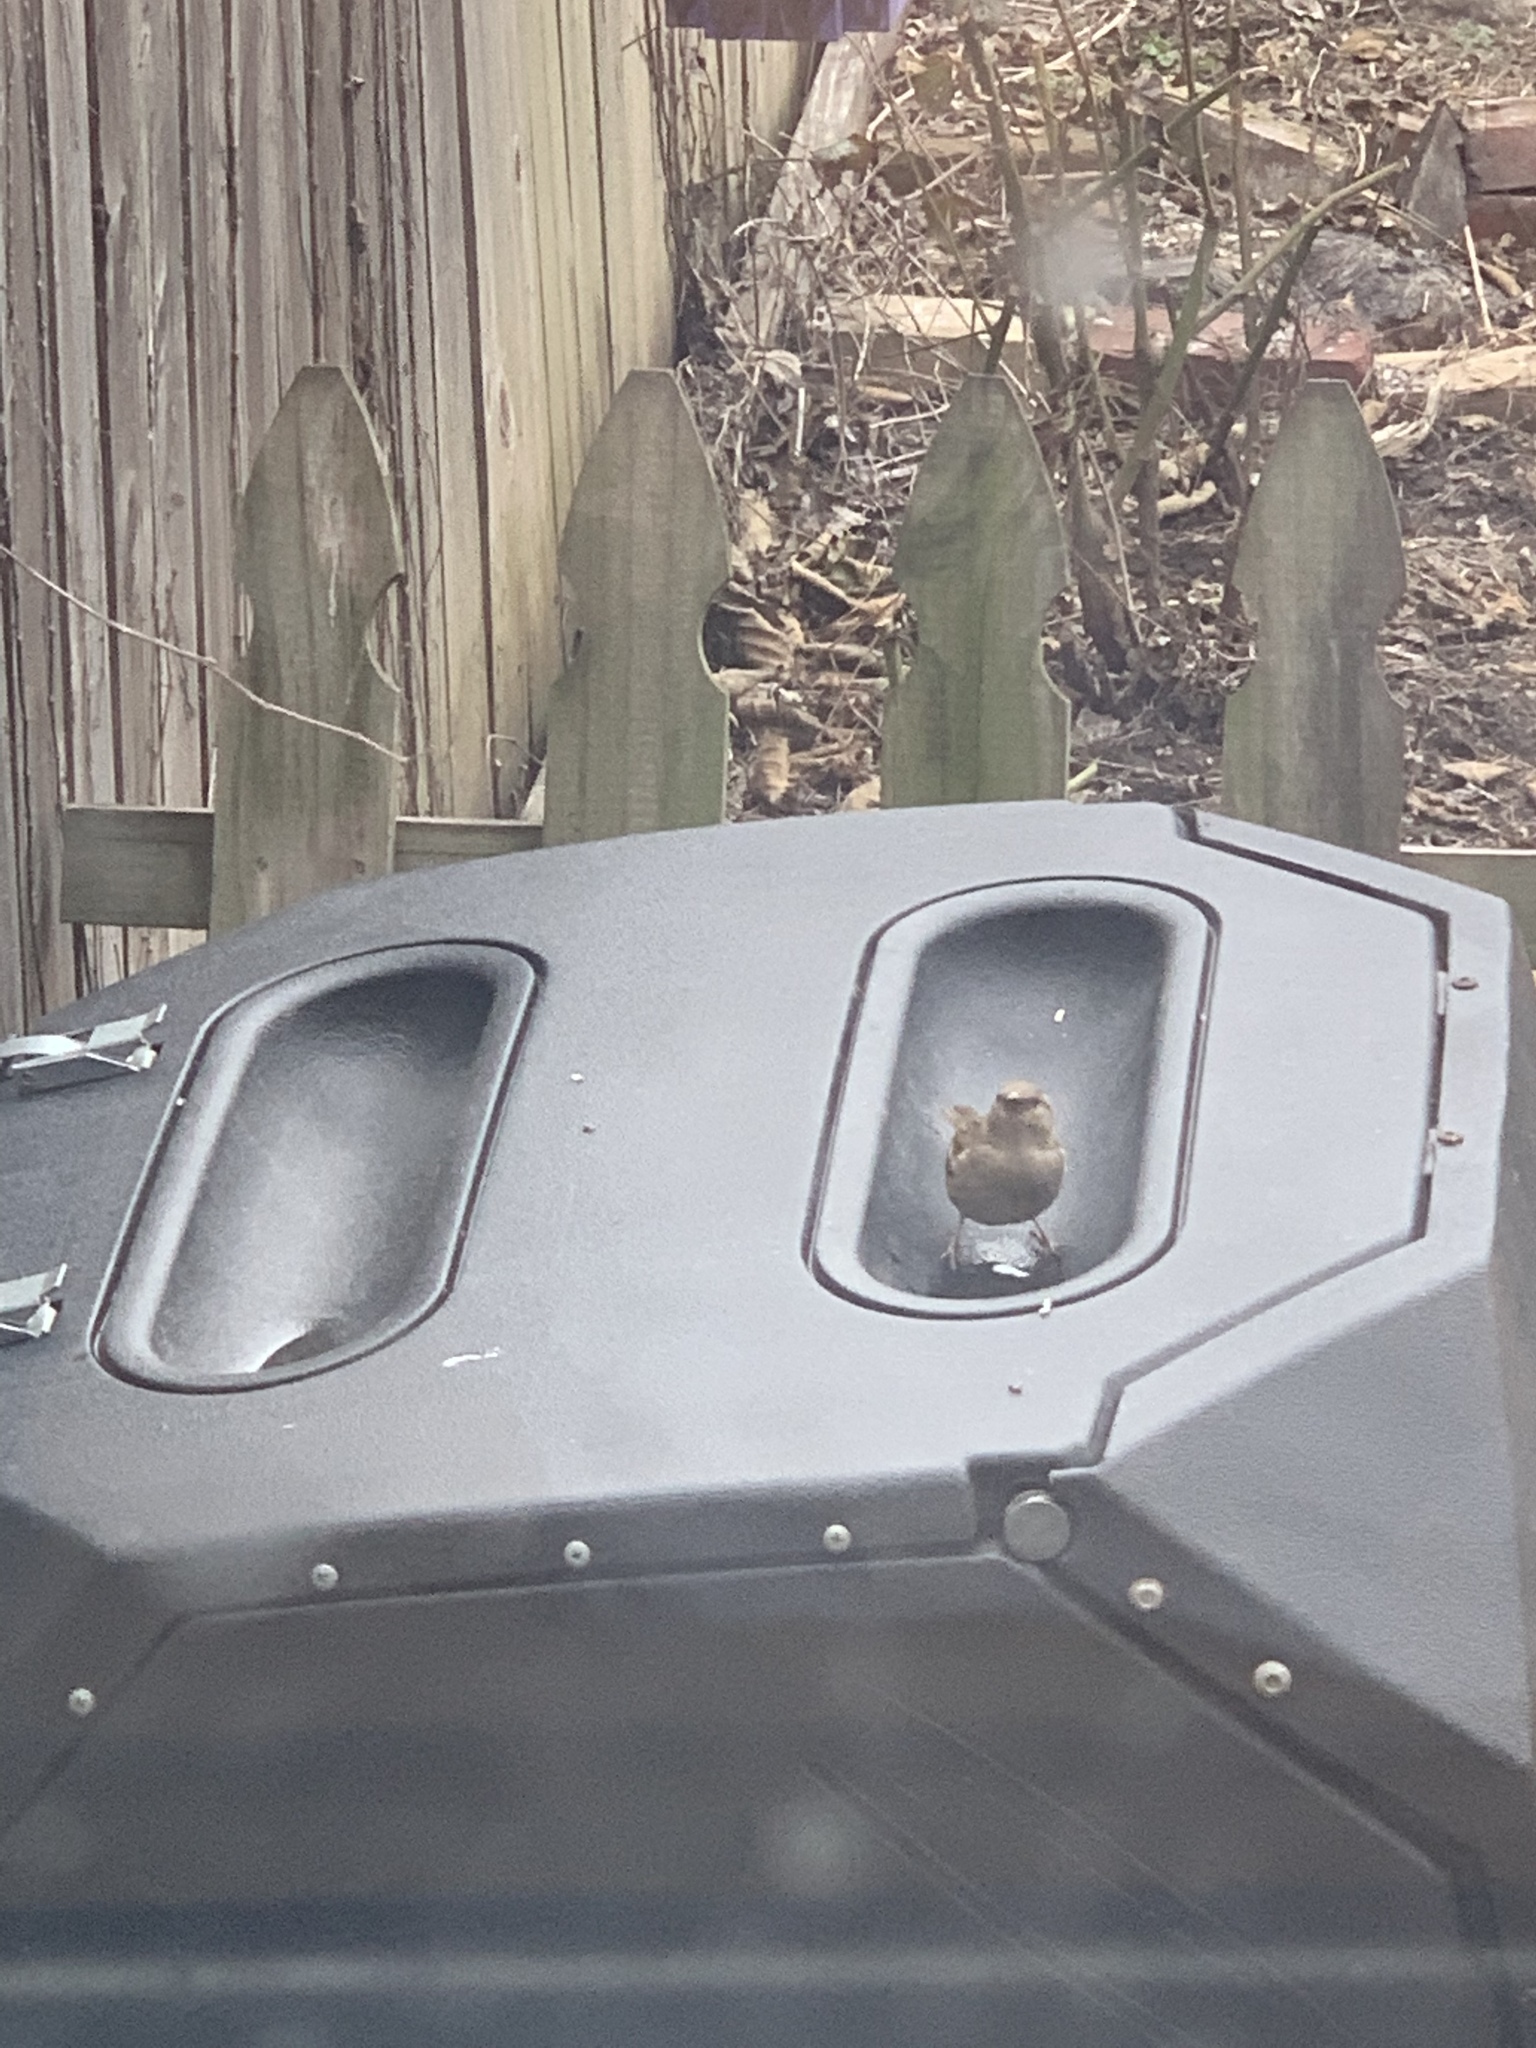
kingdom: Animalia
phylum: Chordata
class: Aves
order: Passeriformes
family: Passeridae
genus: Passer
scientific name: Passer domesticus
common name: House sparrow
